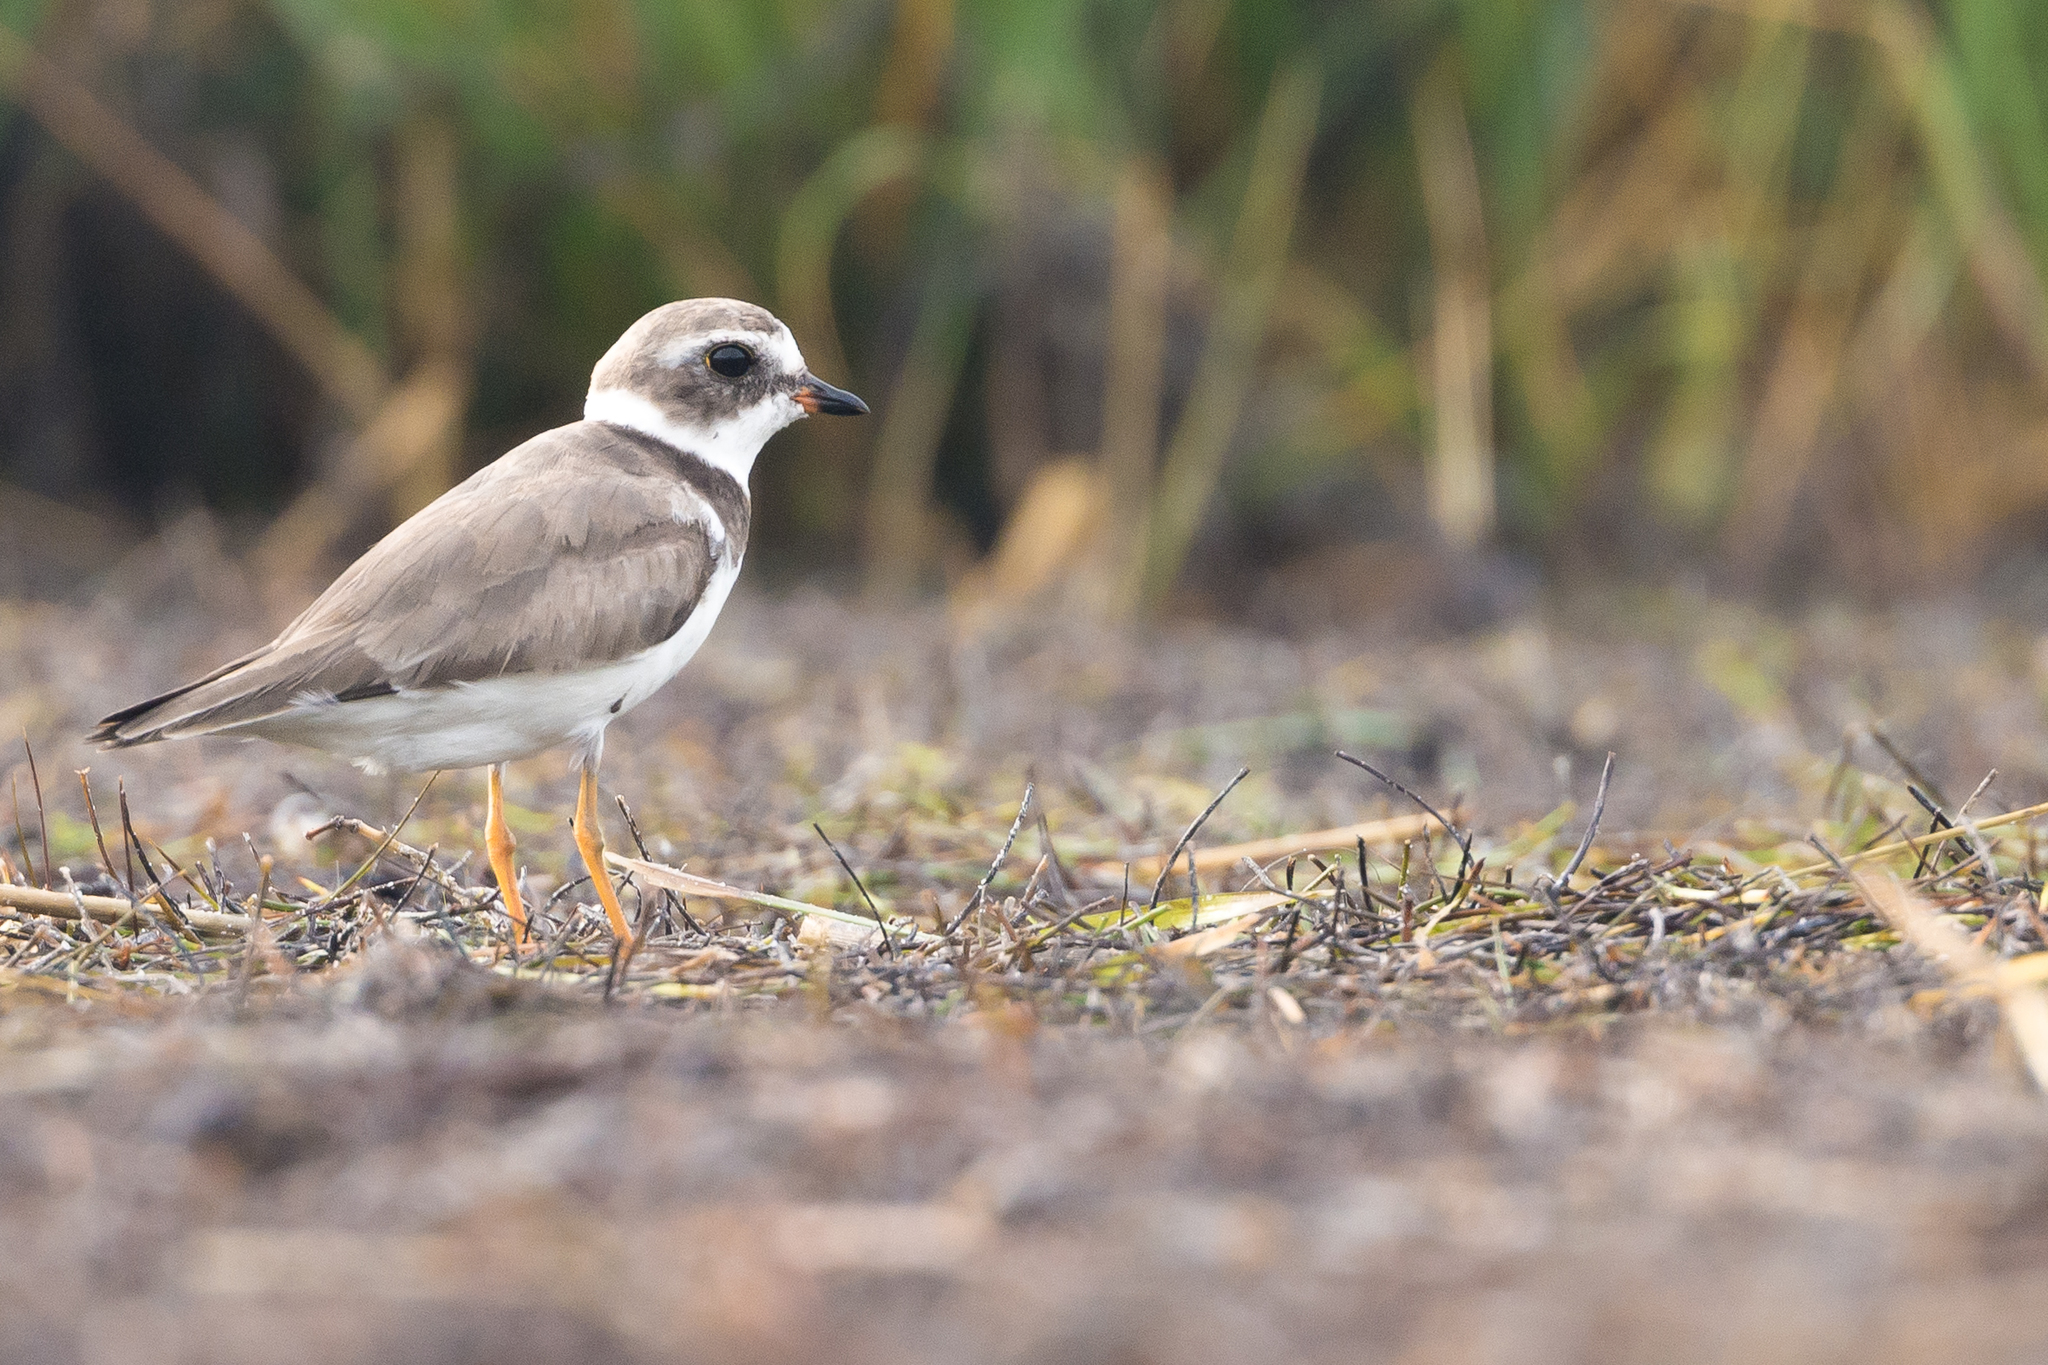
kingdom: Animalia
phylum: Chordata
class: Aves
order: Charadriiformes
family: Charadriidae
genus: Charadrius
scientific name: Charadrius semipalmatus
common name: Semipalmated plover
